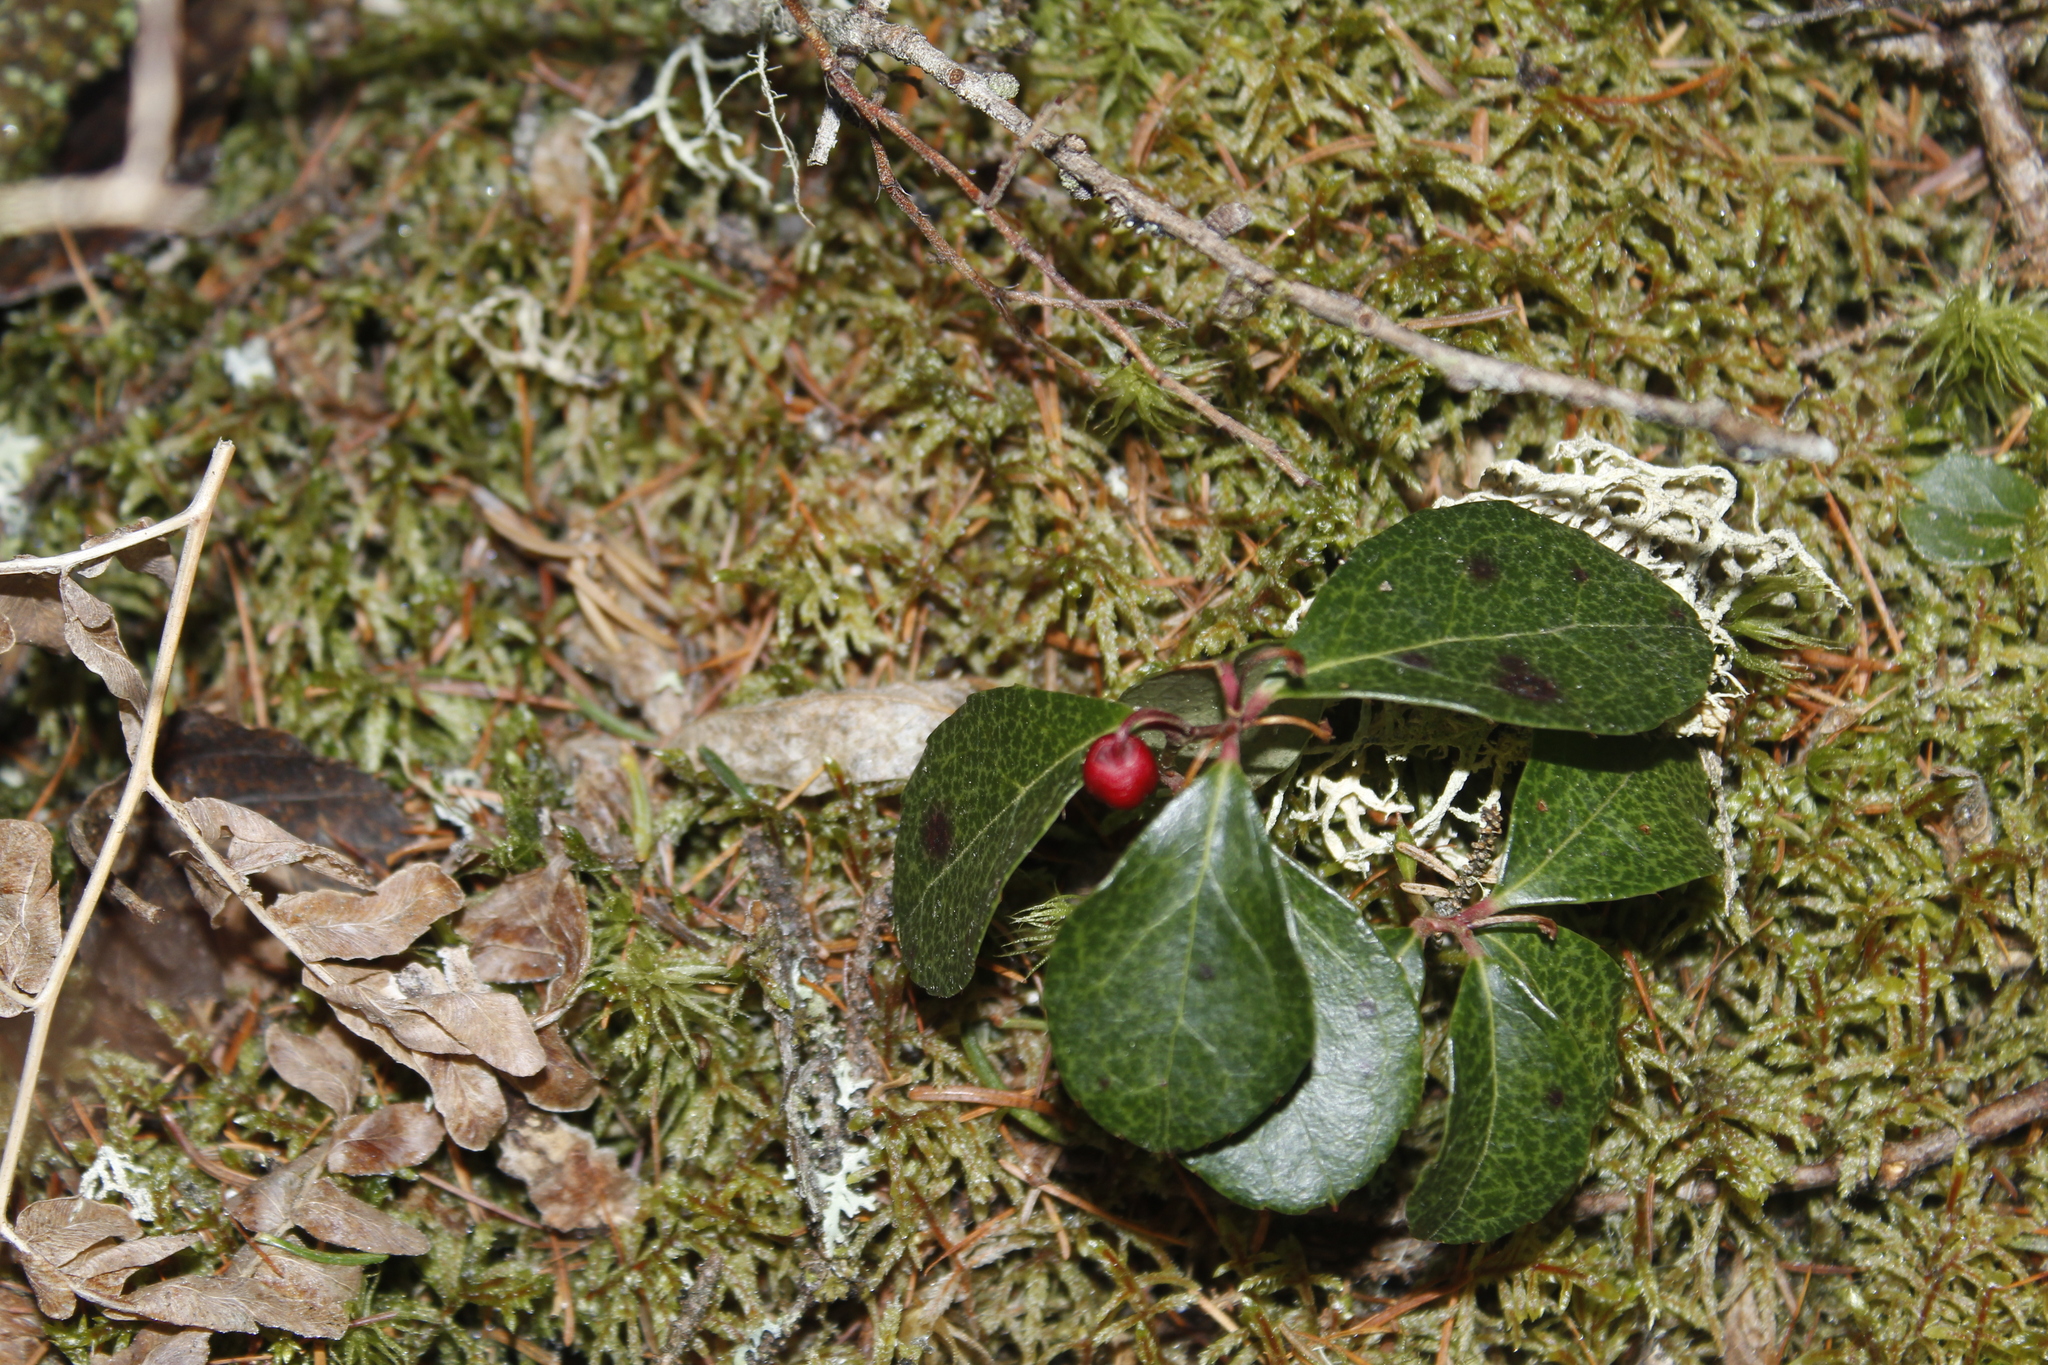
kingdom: Plantae
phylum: Tracheophyta
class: Magnoliopsida
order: Ericales
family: Ericaceae
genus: Gaultheria
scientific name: Gaultheria procumbens
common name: Checkerberry
